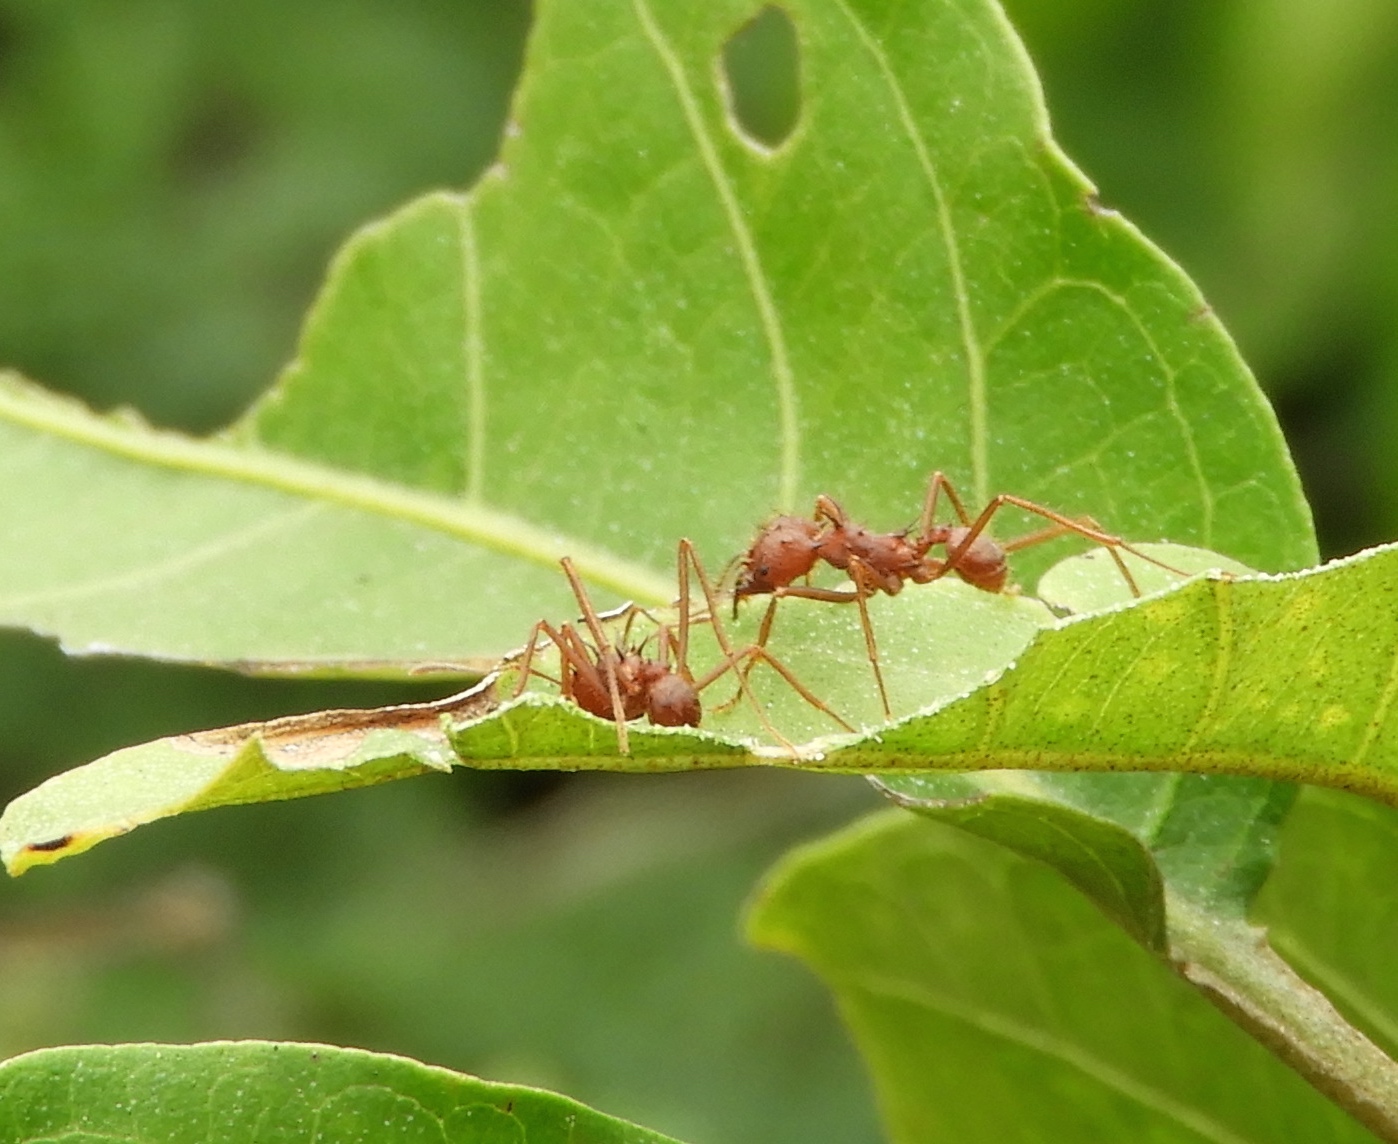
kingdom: Animalia
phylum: Arthropoda
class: Insecta
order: Hymenoptera
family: Formicidae
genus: Atta
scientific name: Atta mexicana
